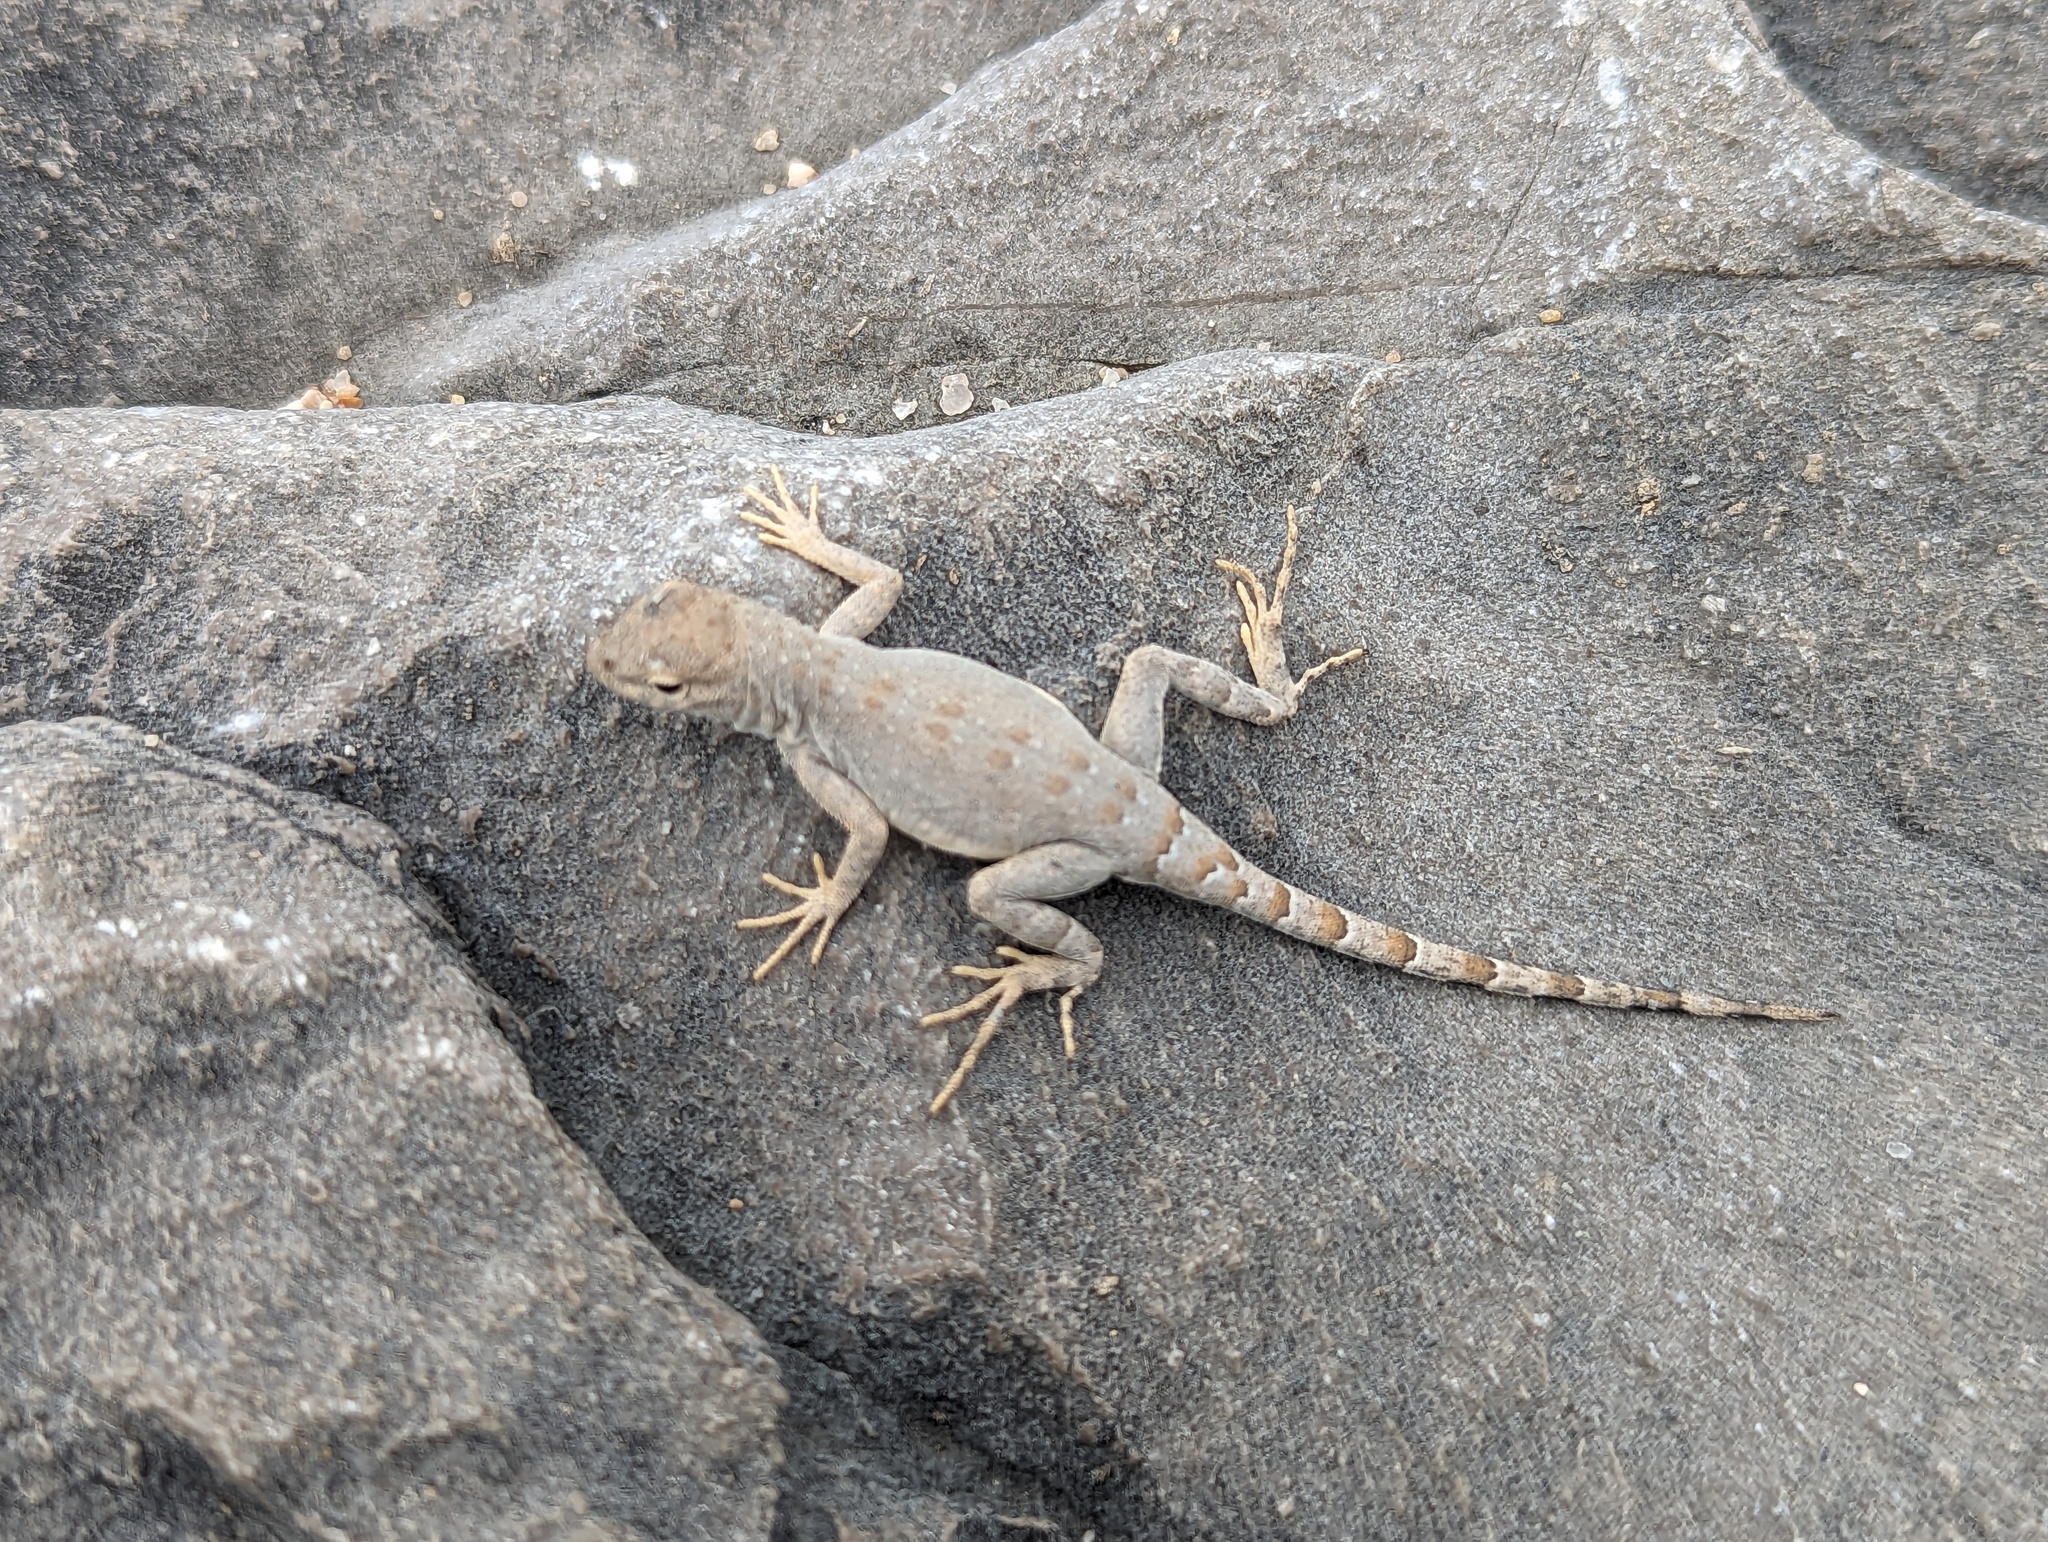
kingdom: Animalia
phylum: Chordata
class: Squamata
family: Phrynosomatidae
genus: Cophosaurus
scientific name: Cophosaurus texanus
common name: Greater earless lizard
